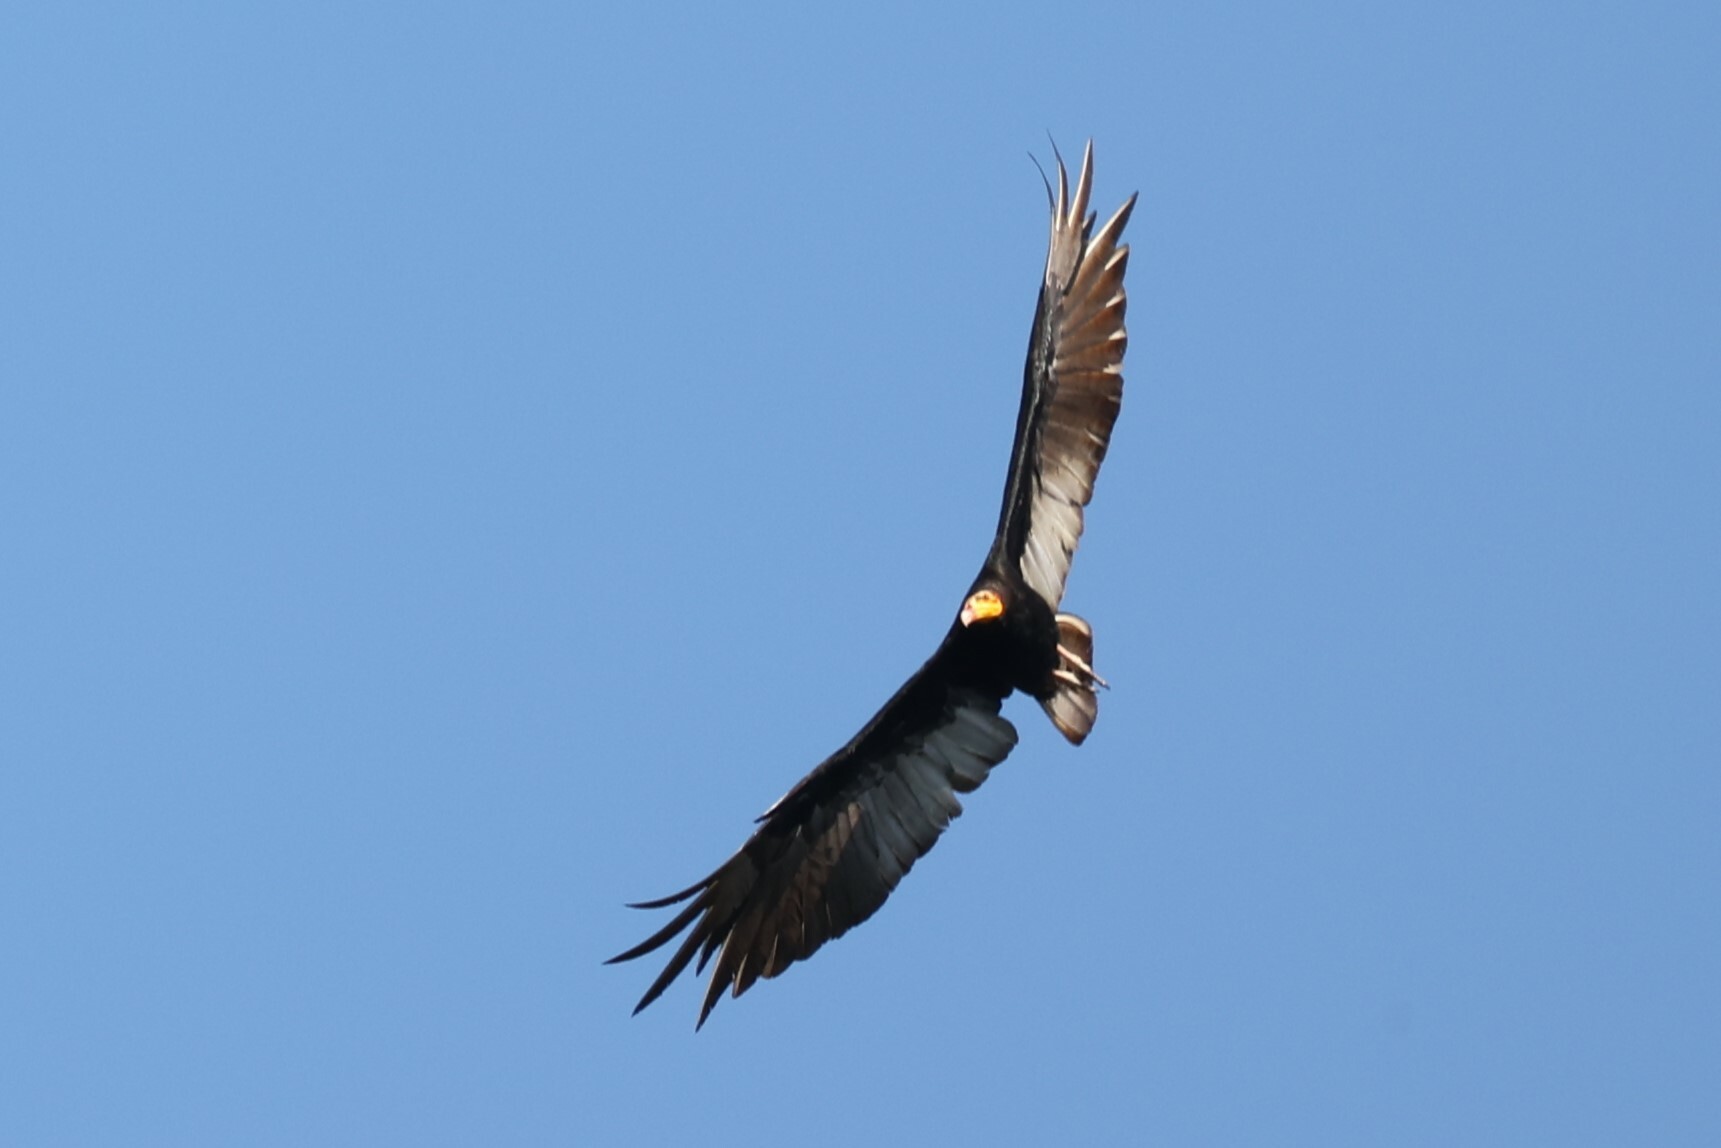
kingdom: Animalia
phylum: Chordata
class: Aves
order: Accipitriformes
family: Cathartidae
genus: Cathartes
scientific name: Cathartes melambrotus
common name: Greater yellow-headed vulture
